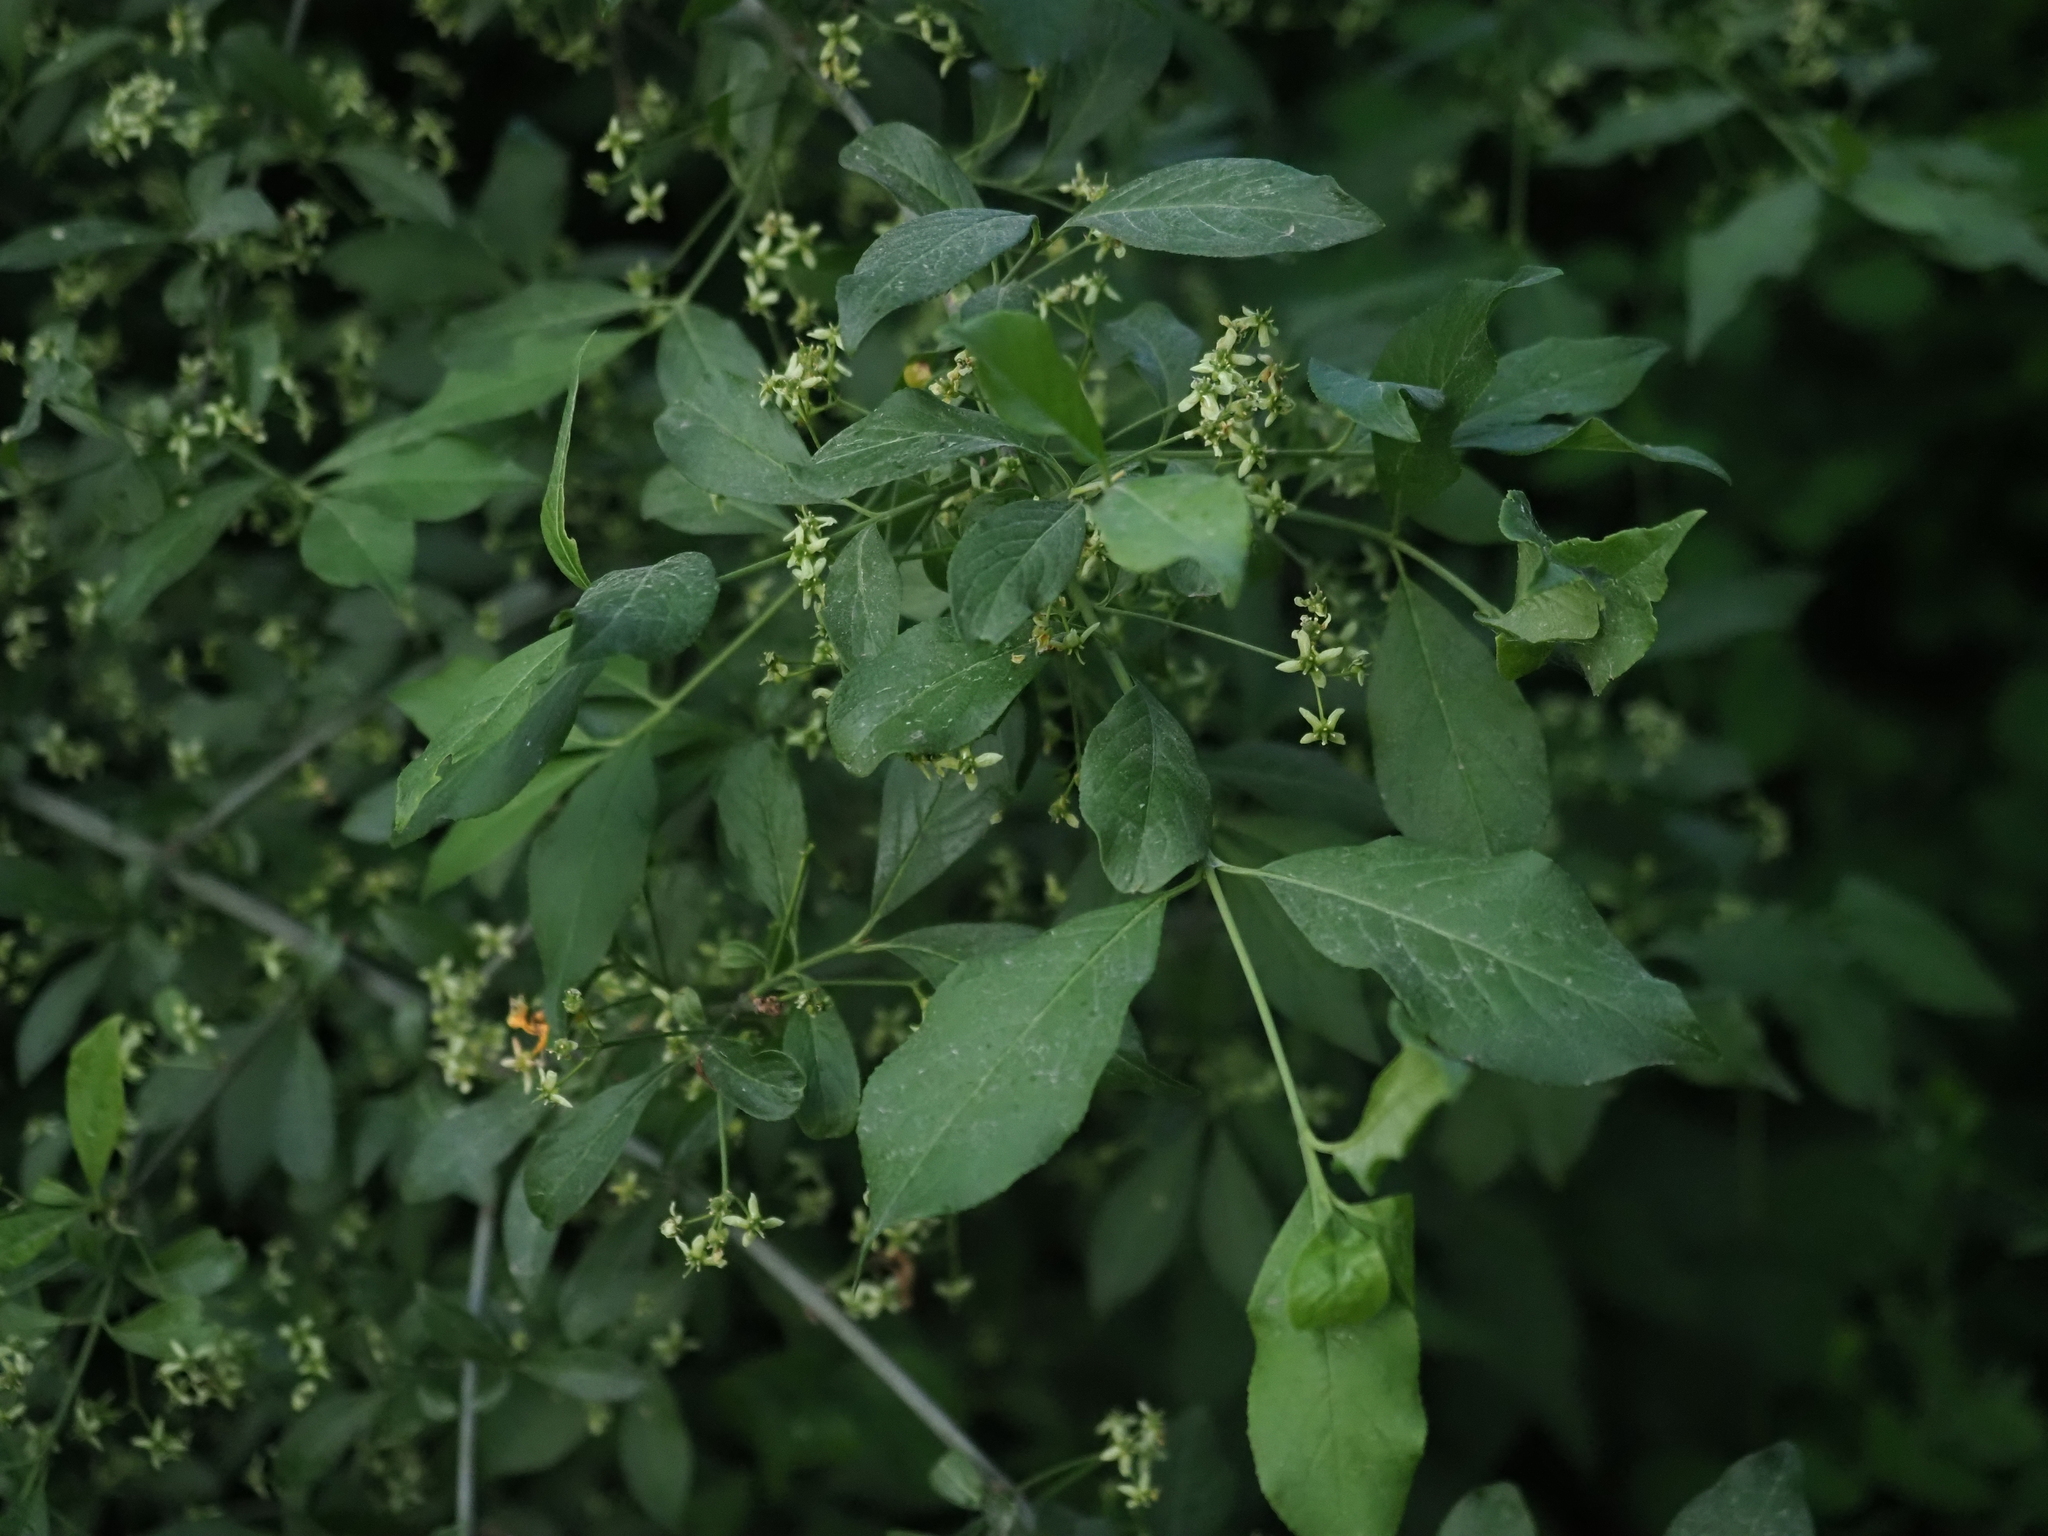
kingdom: Plantae
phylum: Tracheophyta
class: Magnoliopsida
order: Celastrales
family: Celastraceae
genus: Euonymus
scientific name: Euonymus europaeus
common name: Spindle
